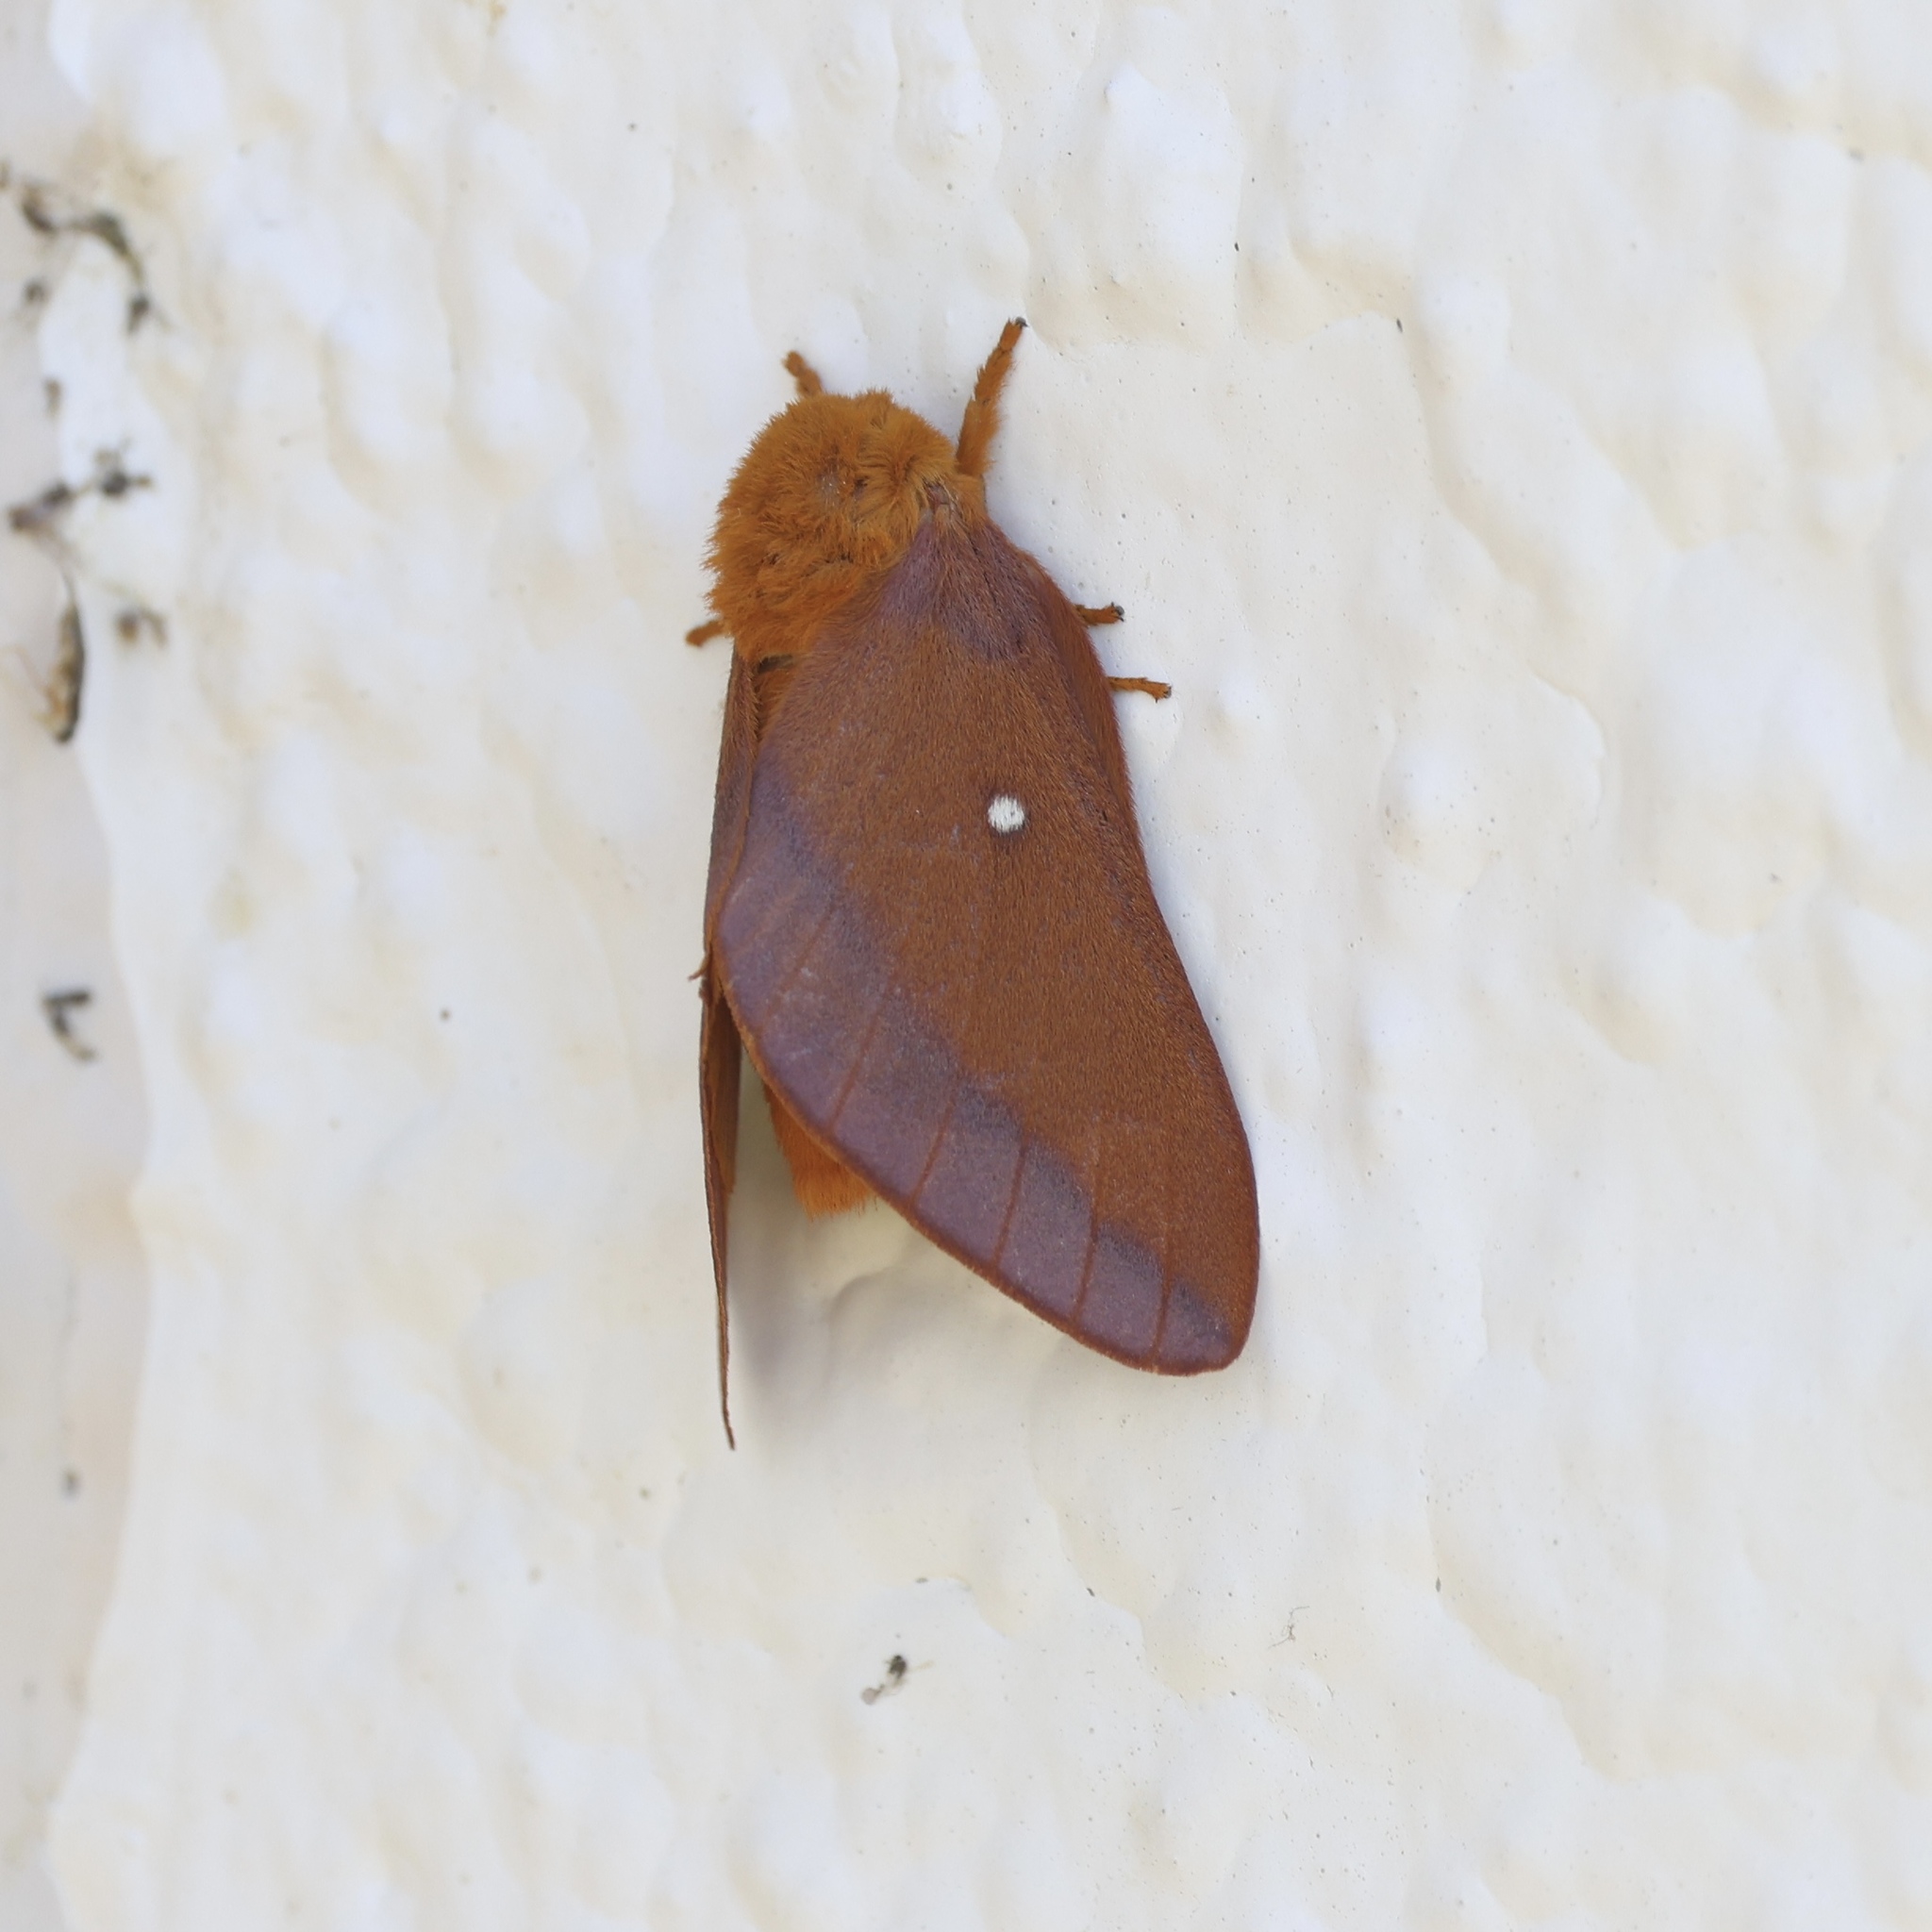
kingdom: Animalia
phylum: Arthropoda
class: Insecta
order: Lepidoptera
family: Saturniidae
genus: Anisota
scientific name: Anisota virginiensis
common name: Pink striped oakworm moth
